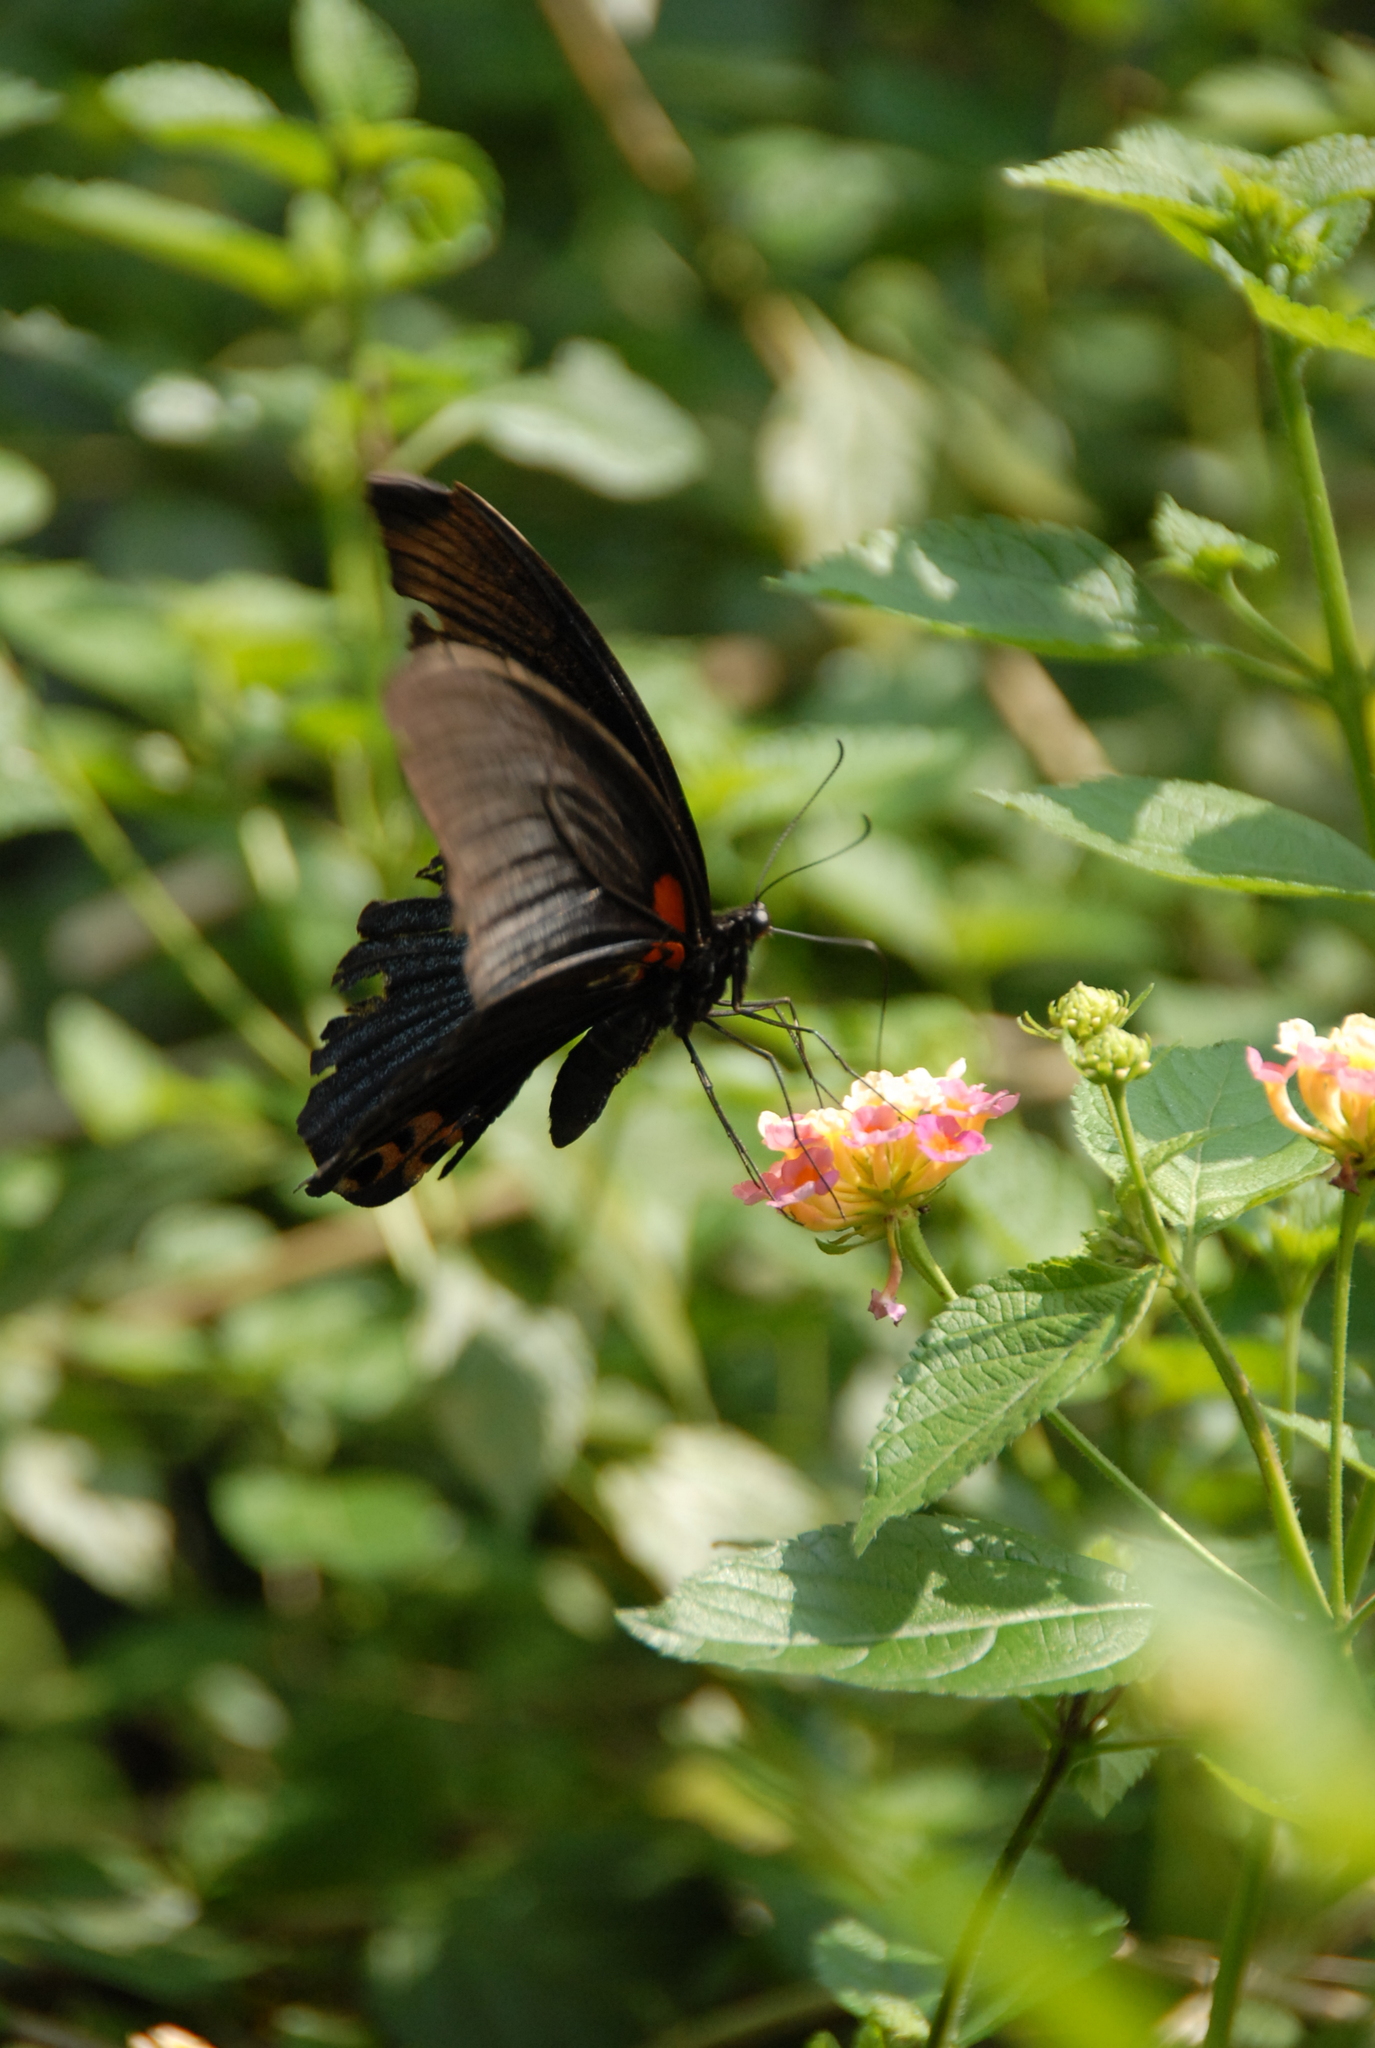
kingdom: Animalia
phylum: Arthropoda
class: Insecta
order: Lepidoptera
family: Papilionidae
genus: Papilio
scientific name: Papilio memnon
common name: Great mormon
